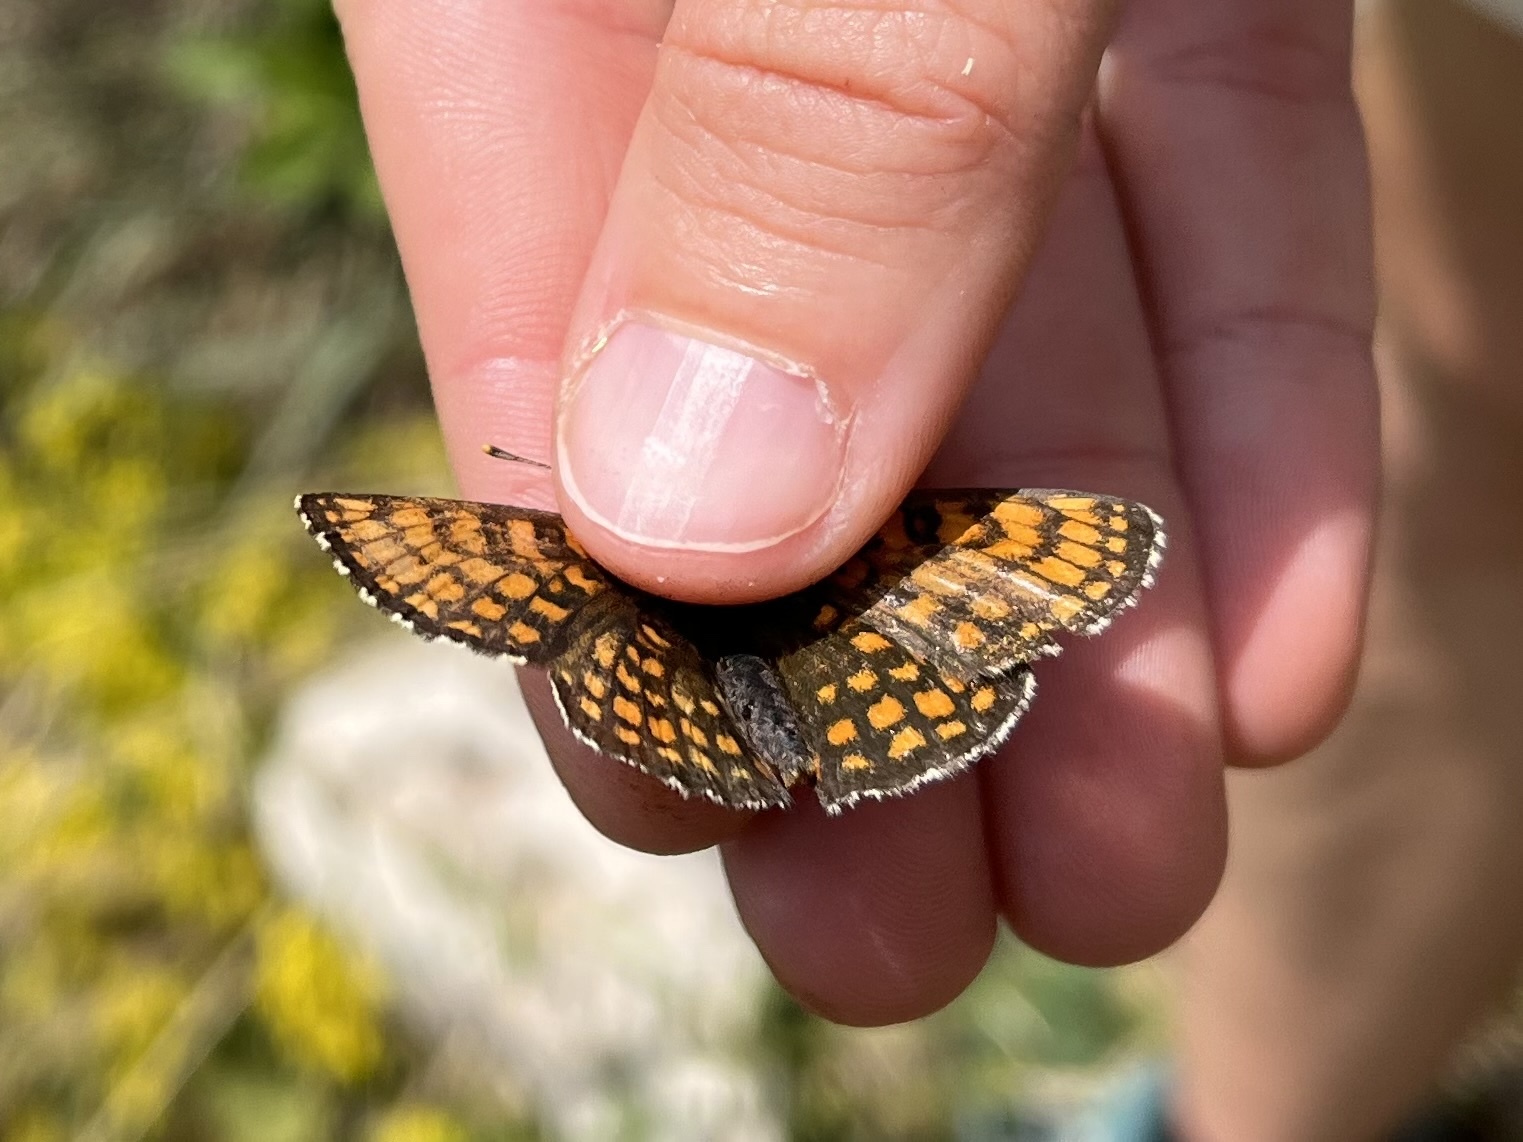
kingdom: Animalia
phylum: Arthropoda
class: Insecta
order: Lepidoptera
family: Nymphalidae
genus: Melitaea
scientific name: Melitaea athalia
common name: Heath fritillary
